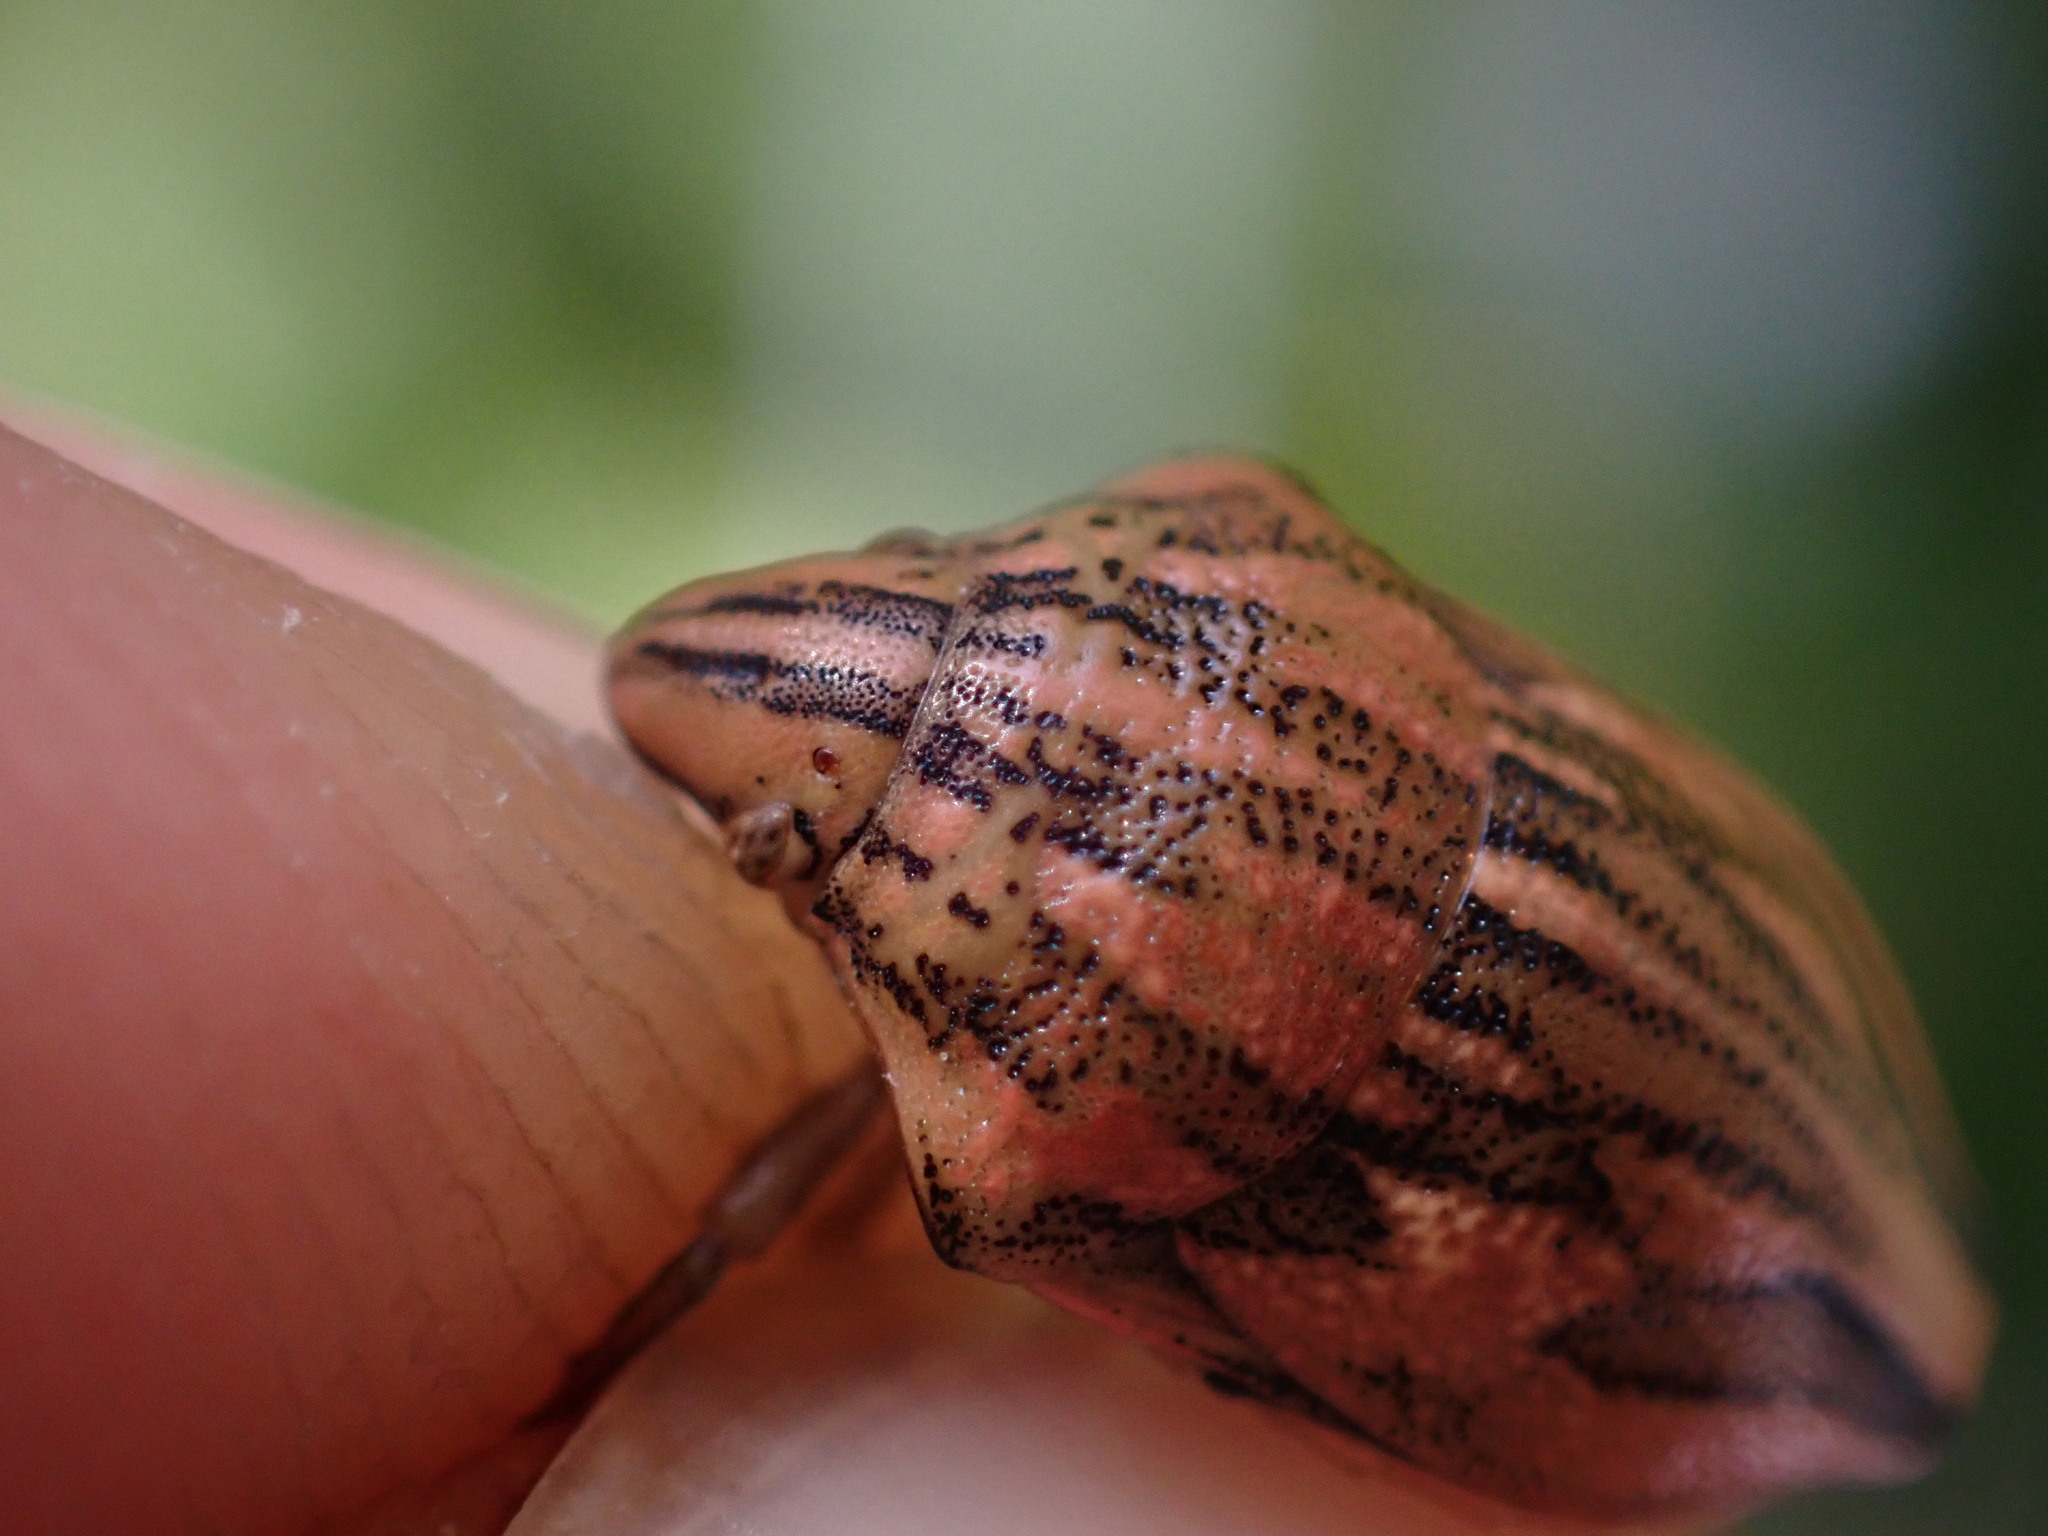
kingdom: Animalia
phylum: Arthropoda
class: Insecta
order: Hemiptera
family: Scutelleridae
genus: Odontotarsus
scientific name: Odontotarsus purpureolineatus
